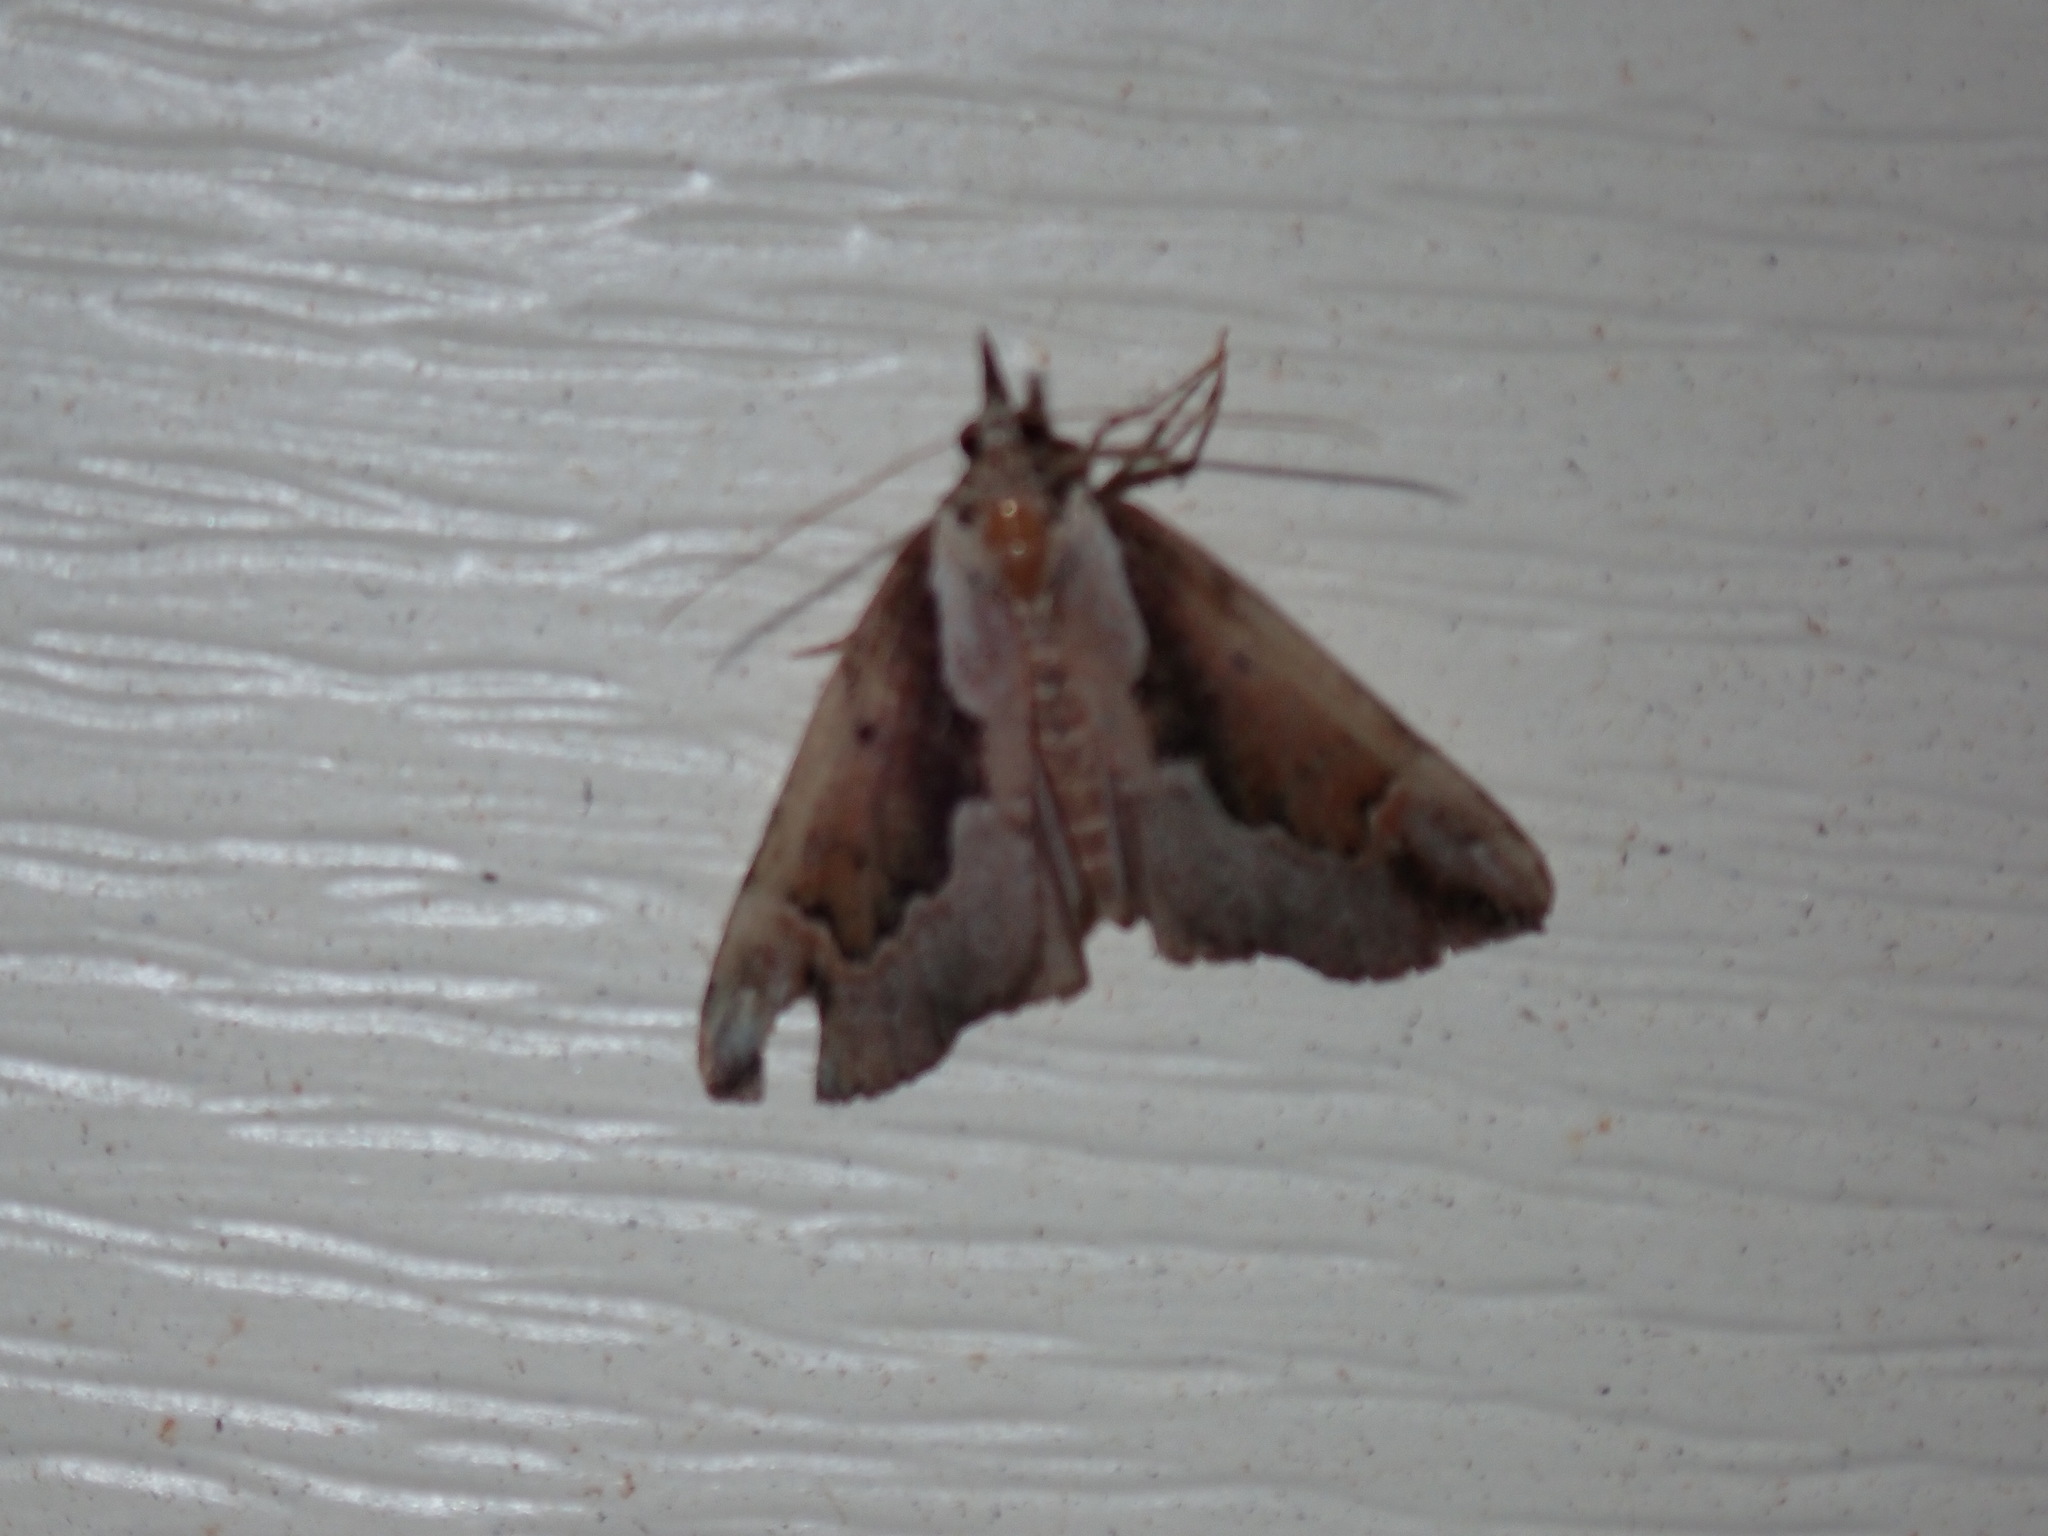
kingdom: Animalia
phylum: Arthropoda
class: Insecta
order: Lepidoptera
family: Erebidae
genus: Hypena
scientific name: Hypena baltimoralis
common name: Baltimore snout
